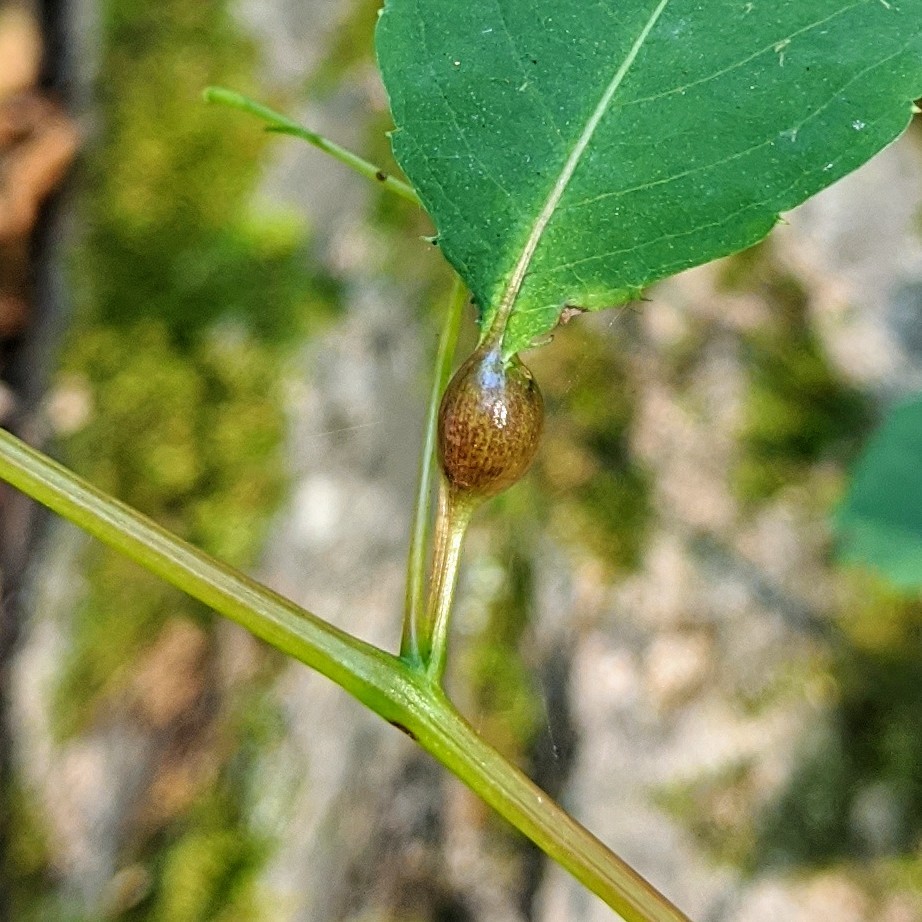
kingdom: Animalia
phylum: Arthropoda
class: Insecta
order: Diptera
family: Cecidomyiidae
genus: Neolasioptera
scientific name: Neolasioptera impatientifolia
